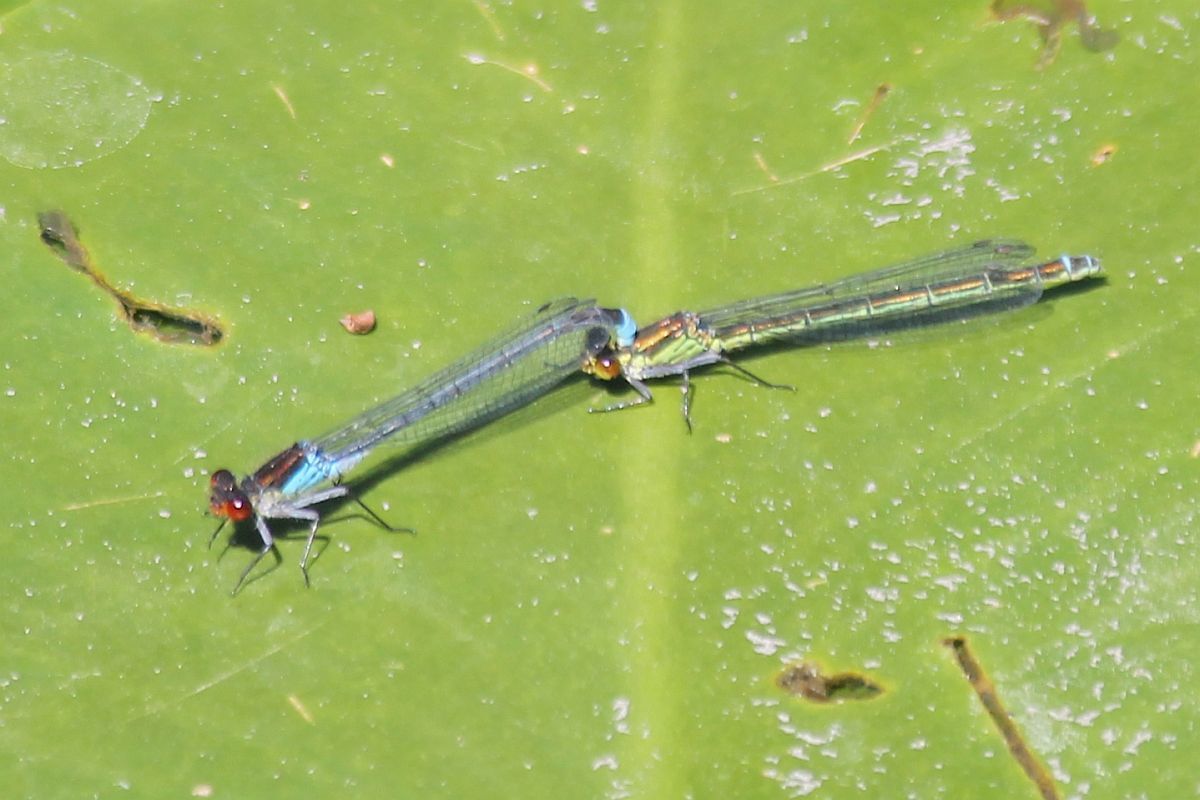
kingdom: Animalia
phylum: Arthropoda
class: Insecta
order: Odonata
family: Coenagrionidae
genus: Erythromma
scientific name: Erythromma najas
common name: Red-eyed damselfly
